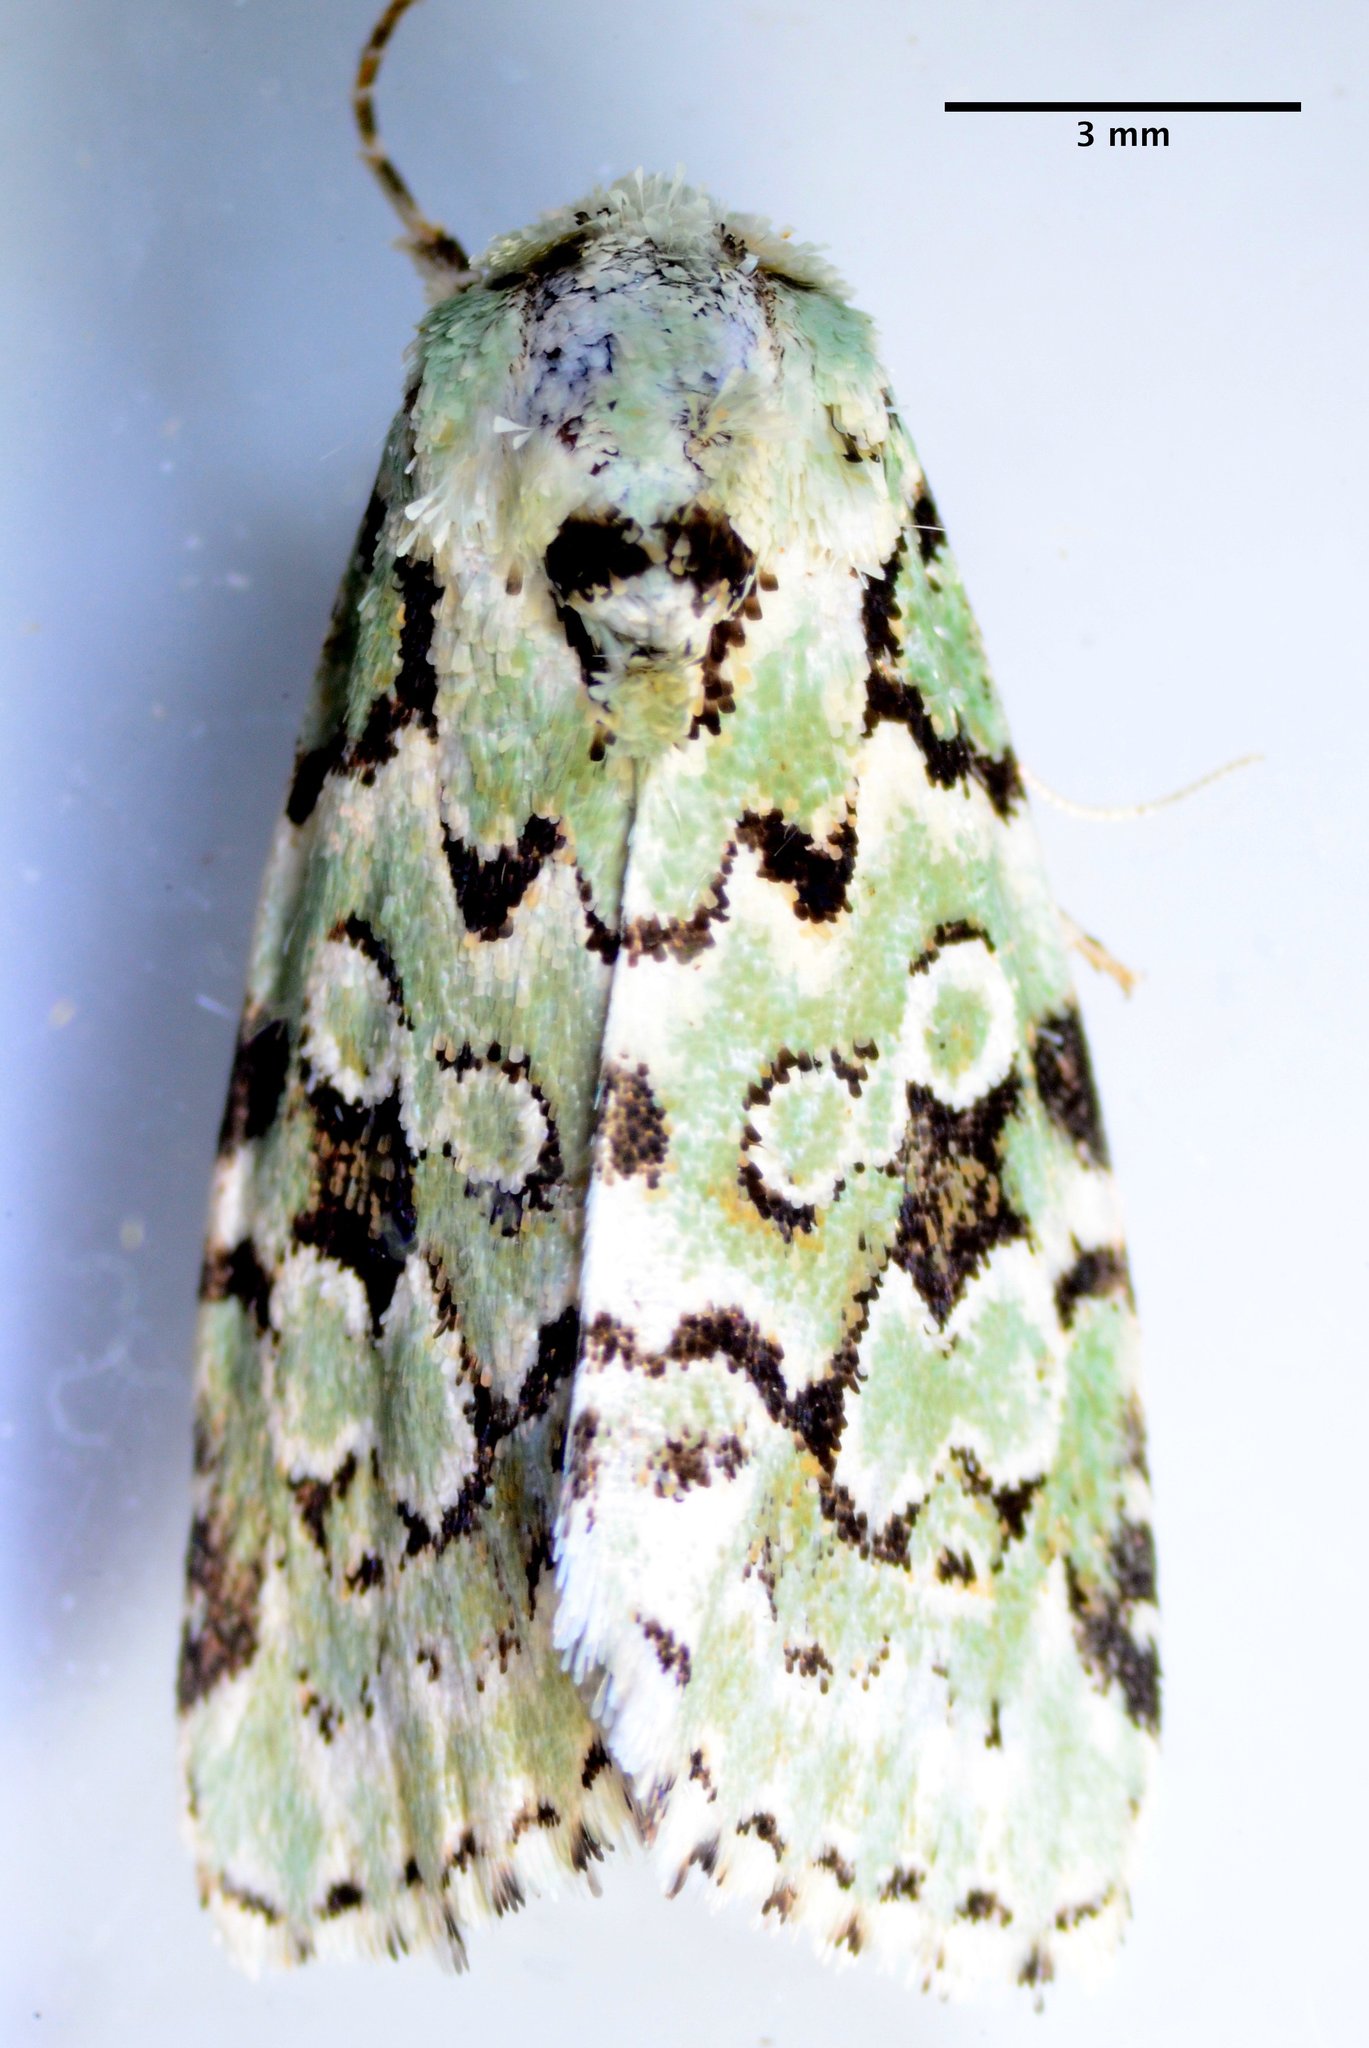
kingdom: Animalia
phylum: Arthropoda
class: Insecta
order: Lepidoptera
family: Noctuidae
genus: Bryolymnia
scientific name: Bryolymnia viridata
